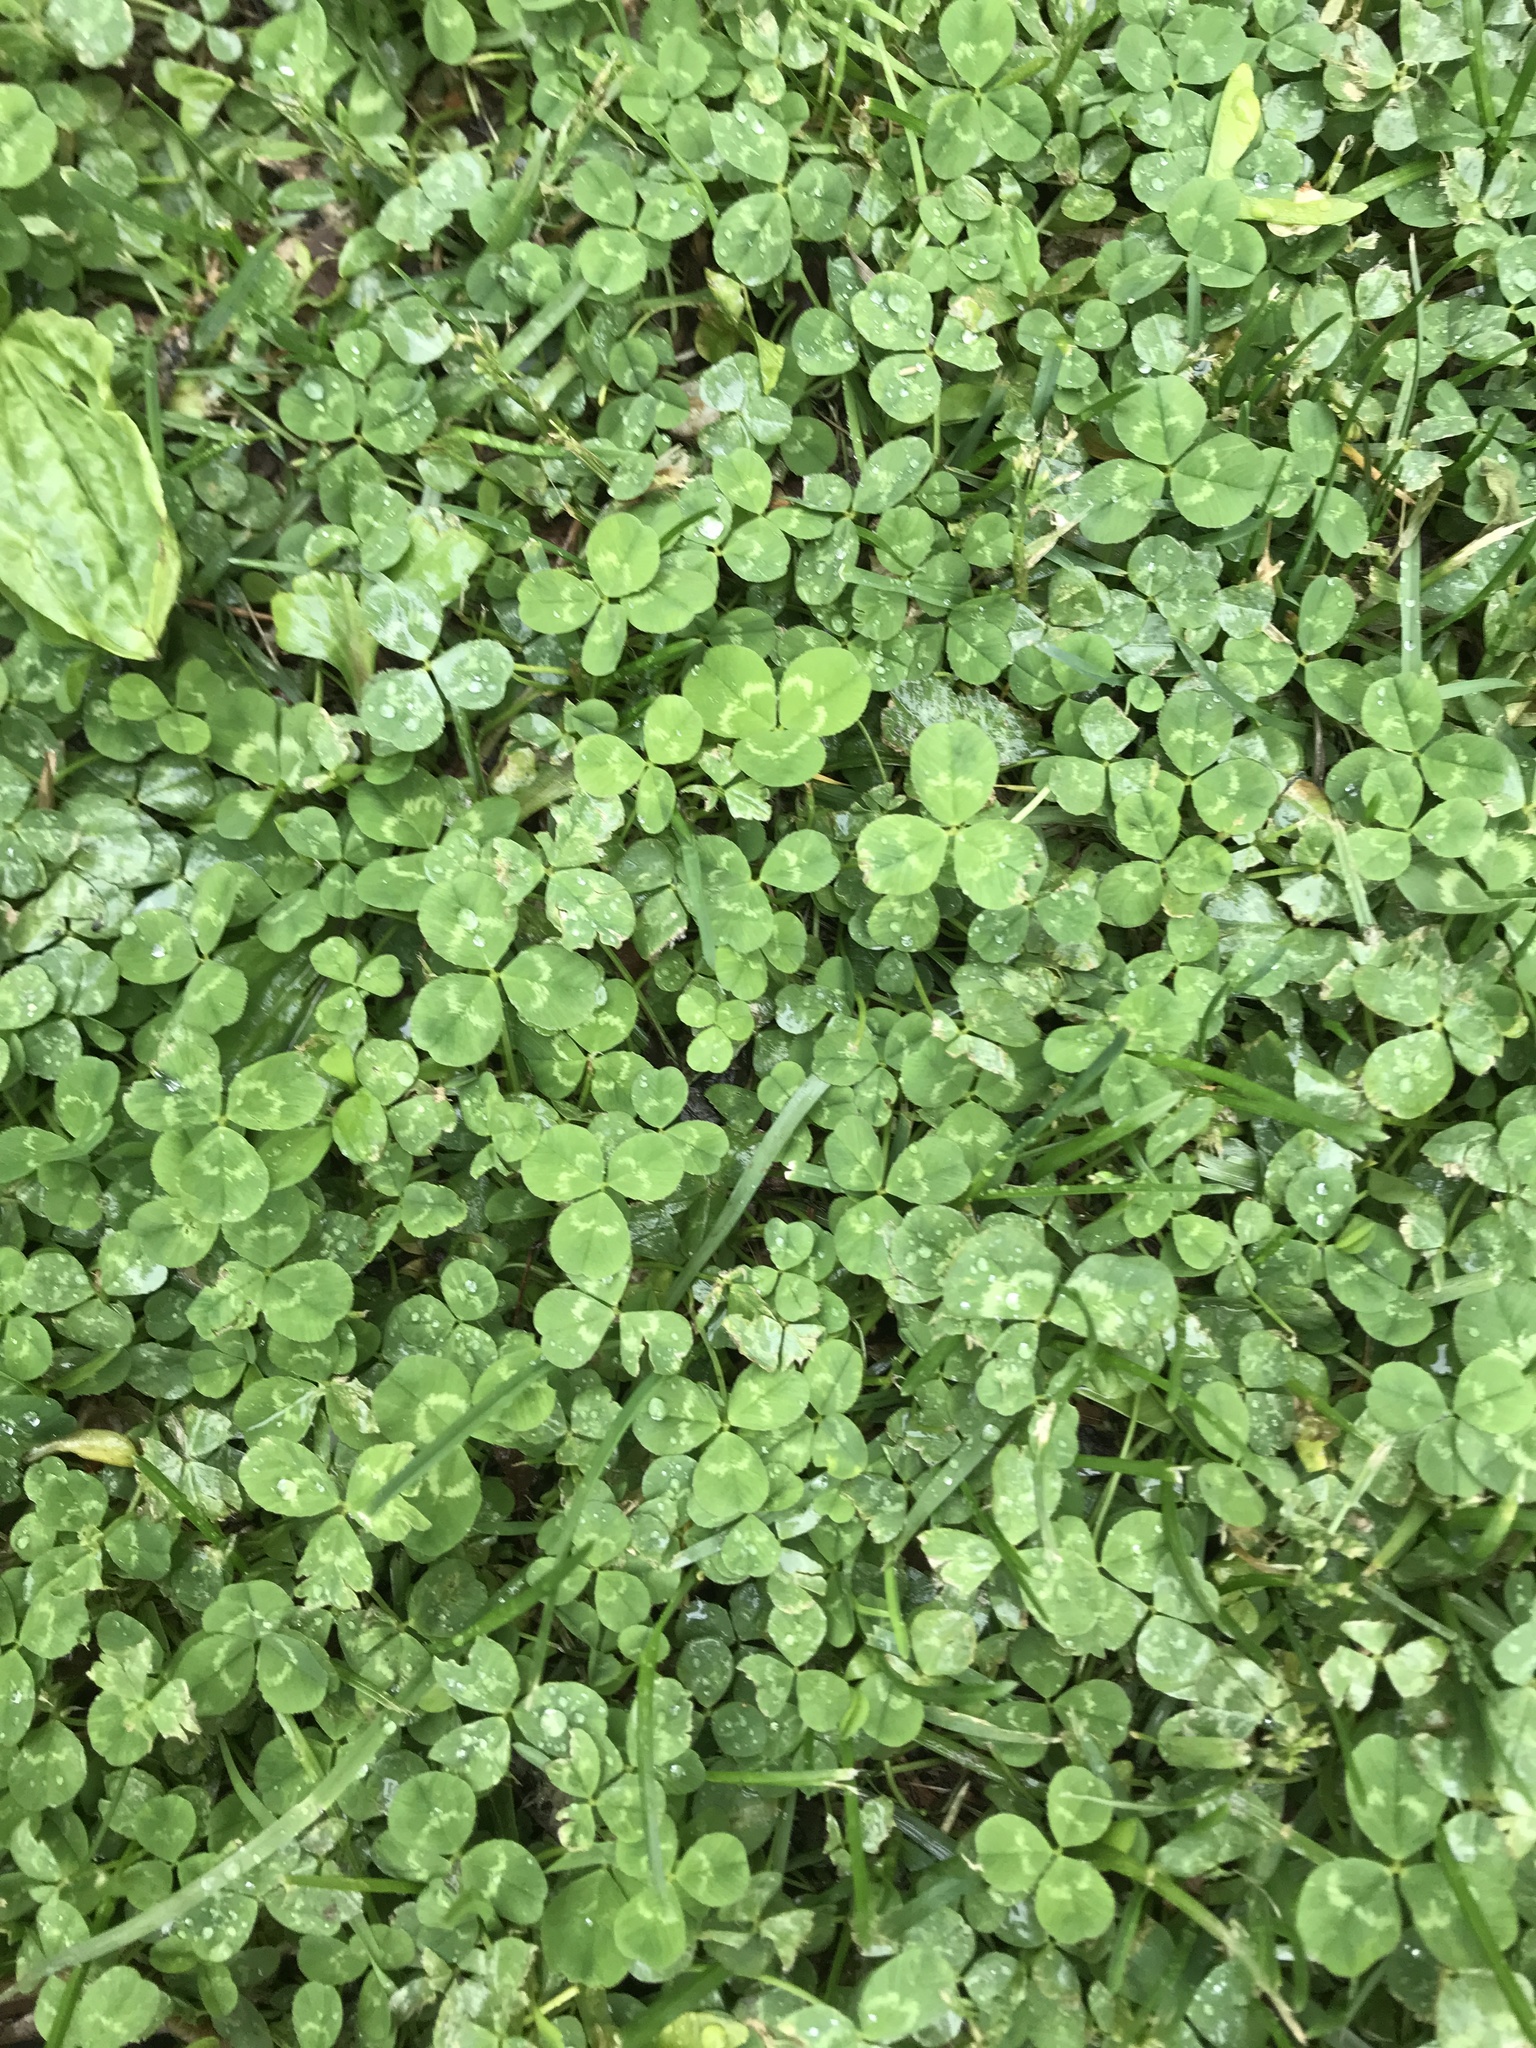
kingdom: Plantae
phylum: Tracheophyta
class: Magnoliopsida
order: Fabales
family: Fabaceae
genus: Trifolium
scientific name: Trifolium repens
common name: White clover
